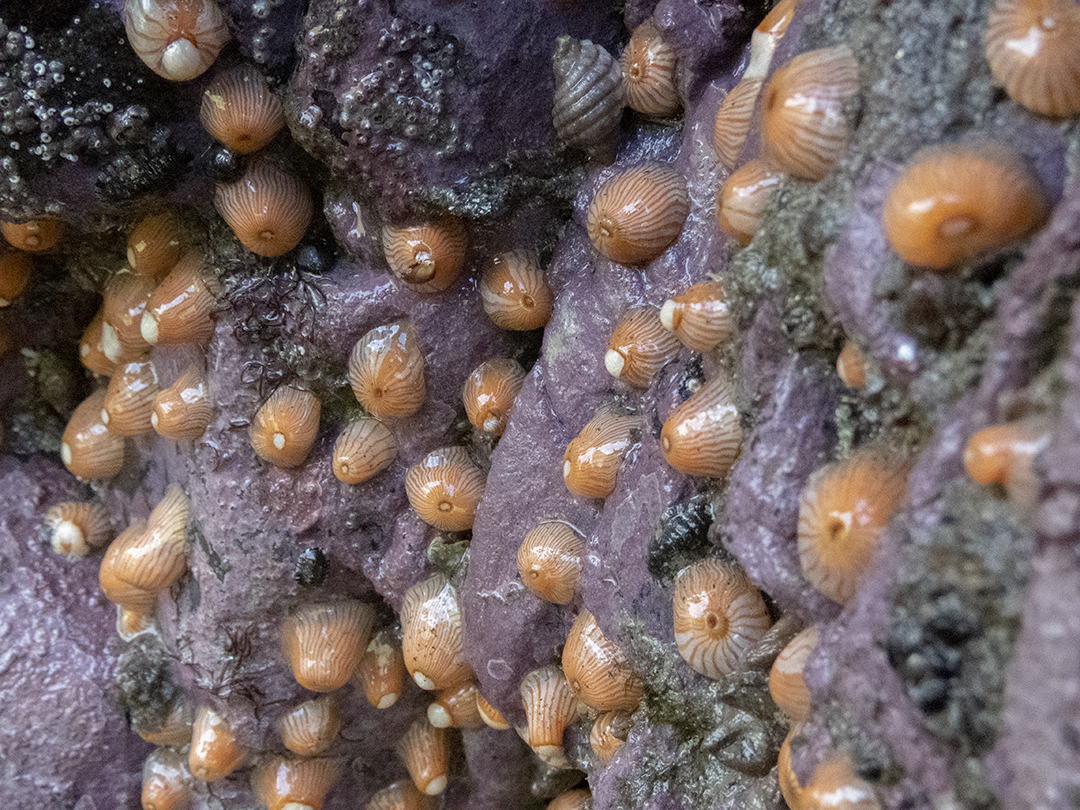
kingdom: Animalia
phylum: Cnidaria
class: Anthozoa
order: Actiniaria
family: Sagartiidae
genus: Anthothoe
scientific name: Anthothoe albocincta
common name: Orange striped anemone
